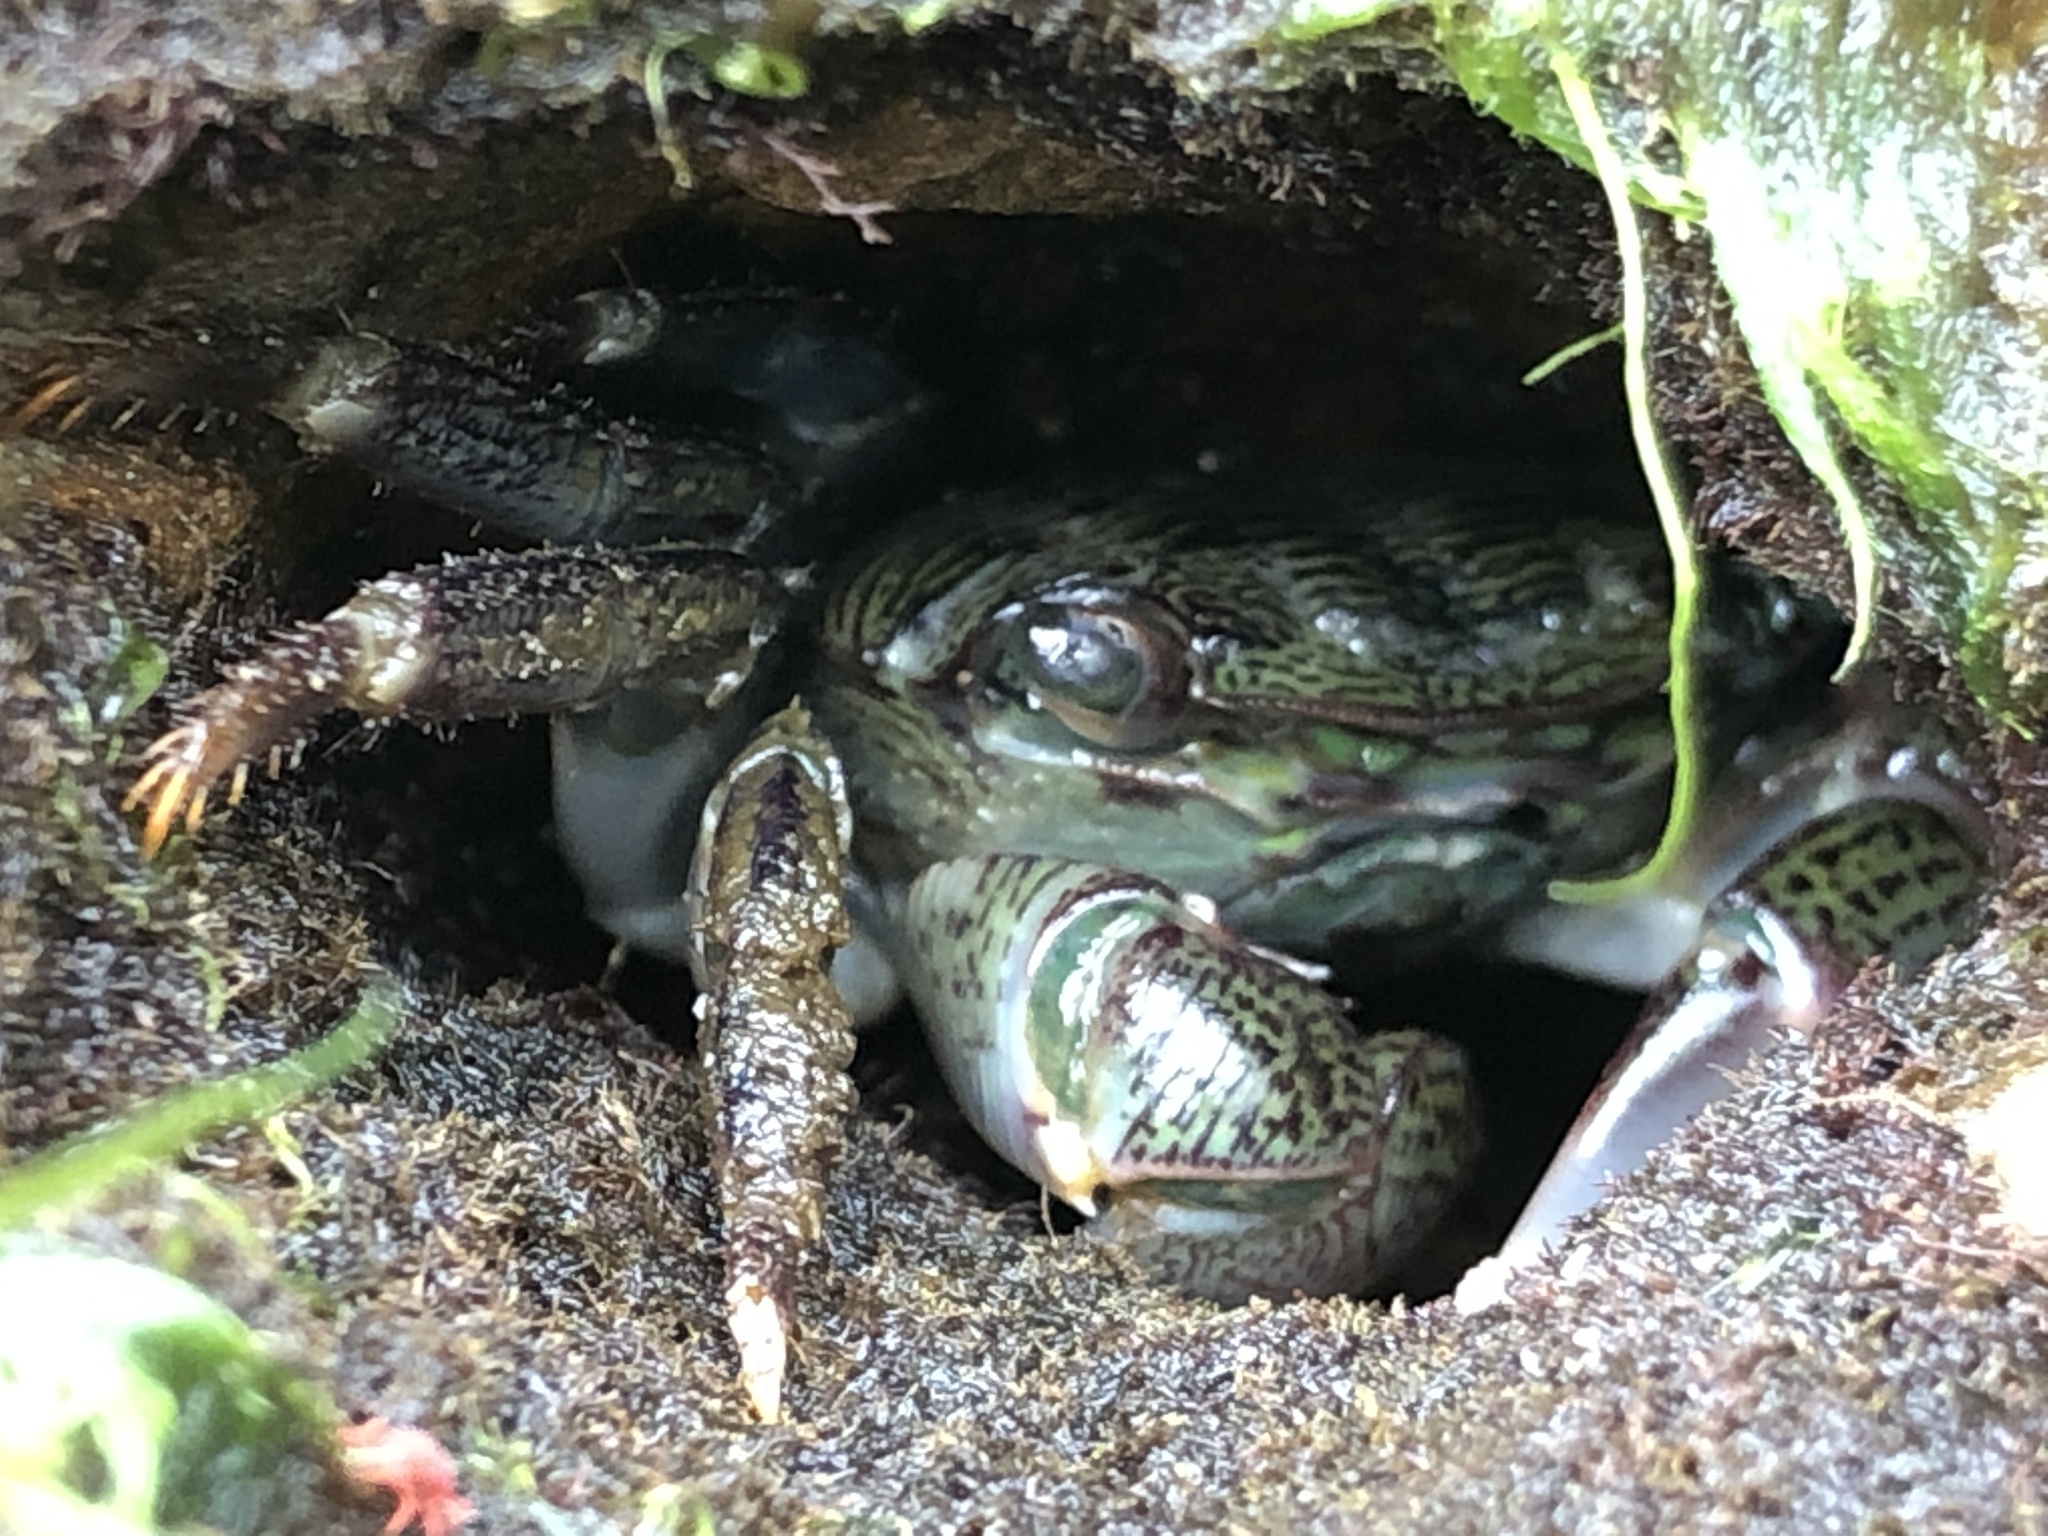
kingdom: Animalia
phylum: Arthropoda
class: Malacostraca
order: Decapoda
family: Grapsidae
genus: Pachygrapsus
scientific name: Pachygrapsus crassipes
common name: Striped shore crab
